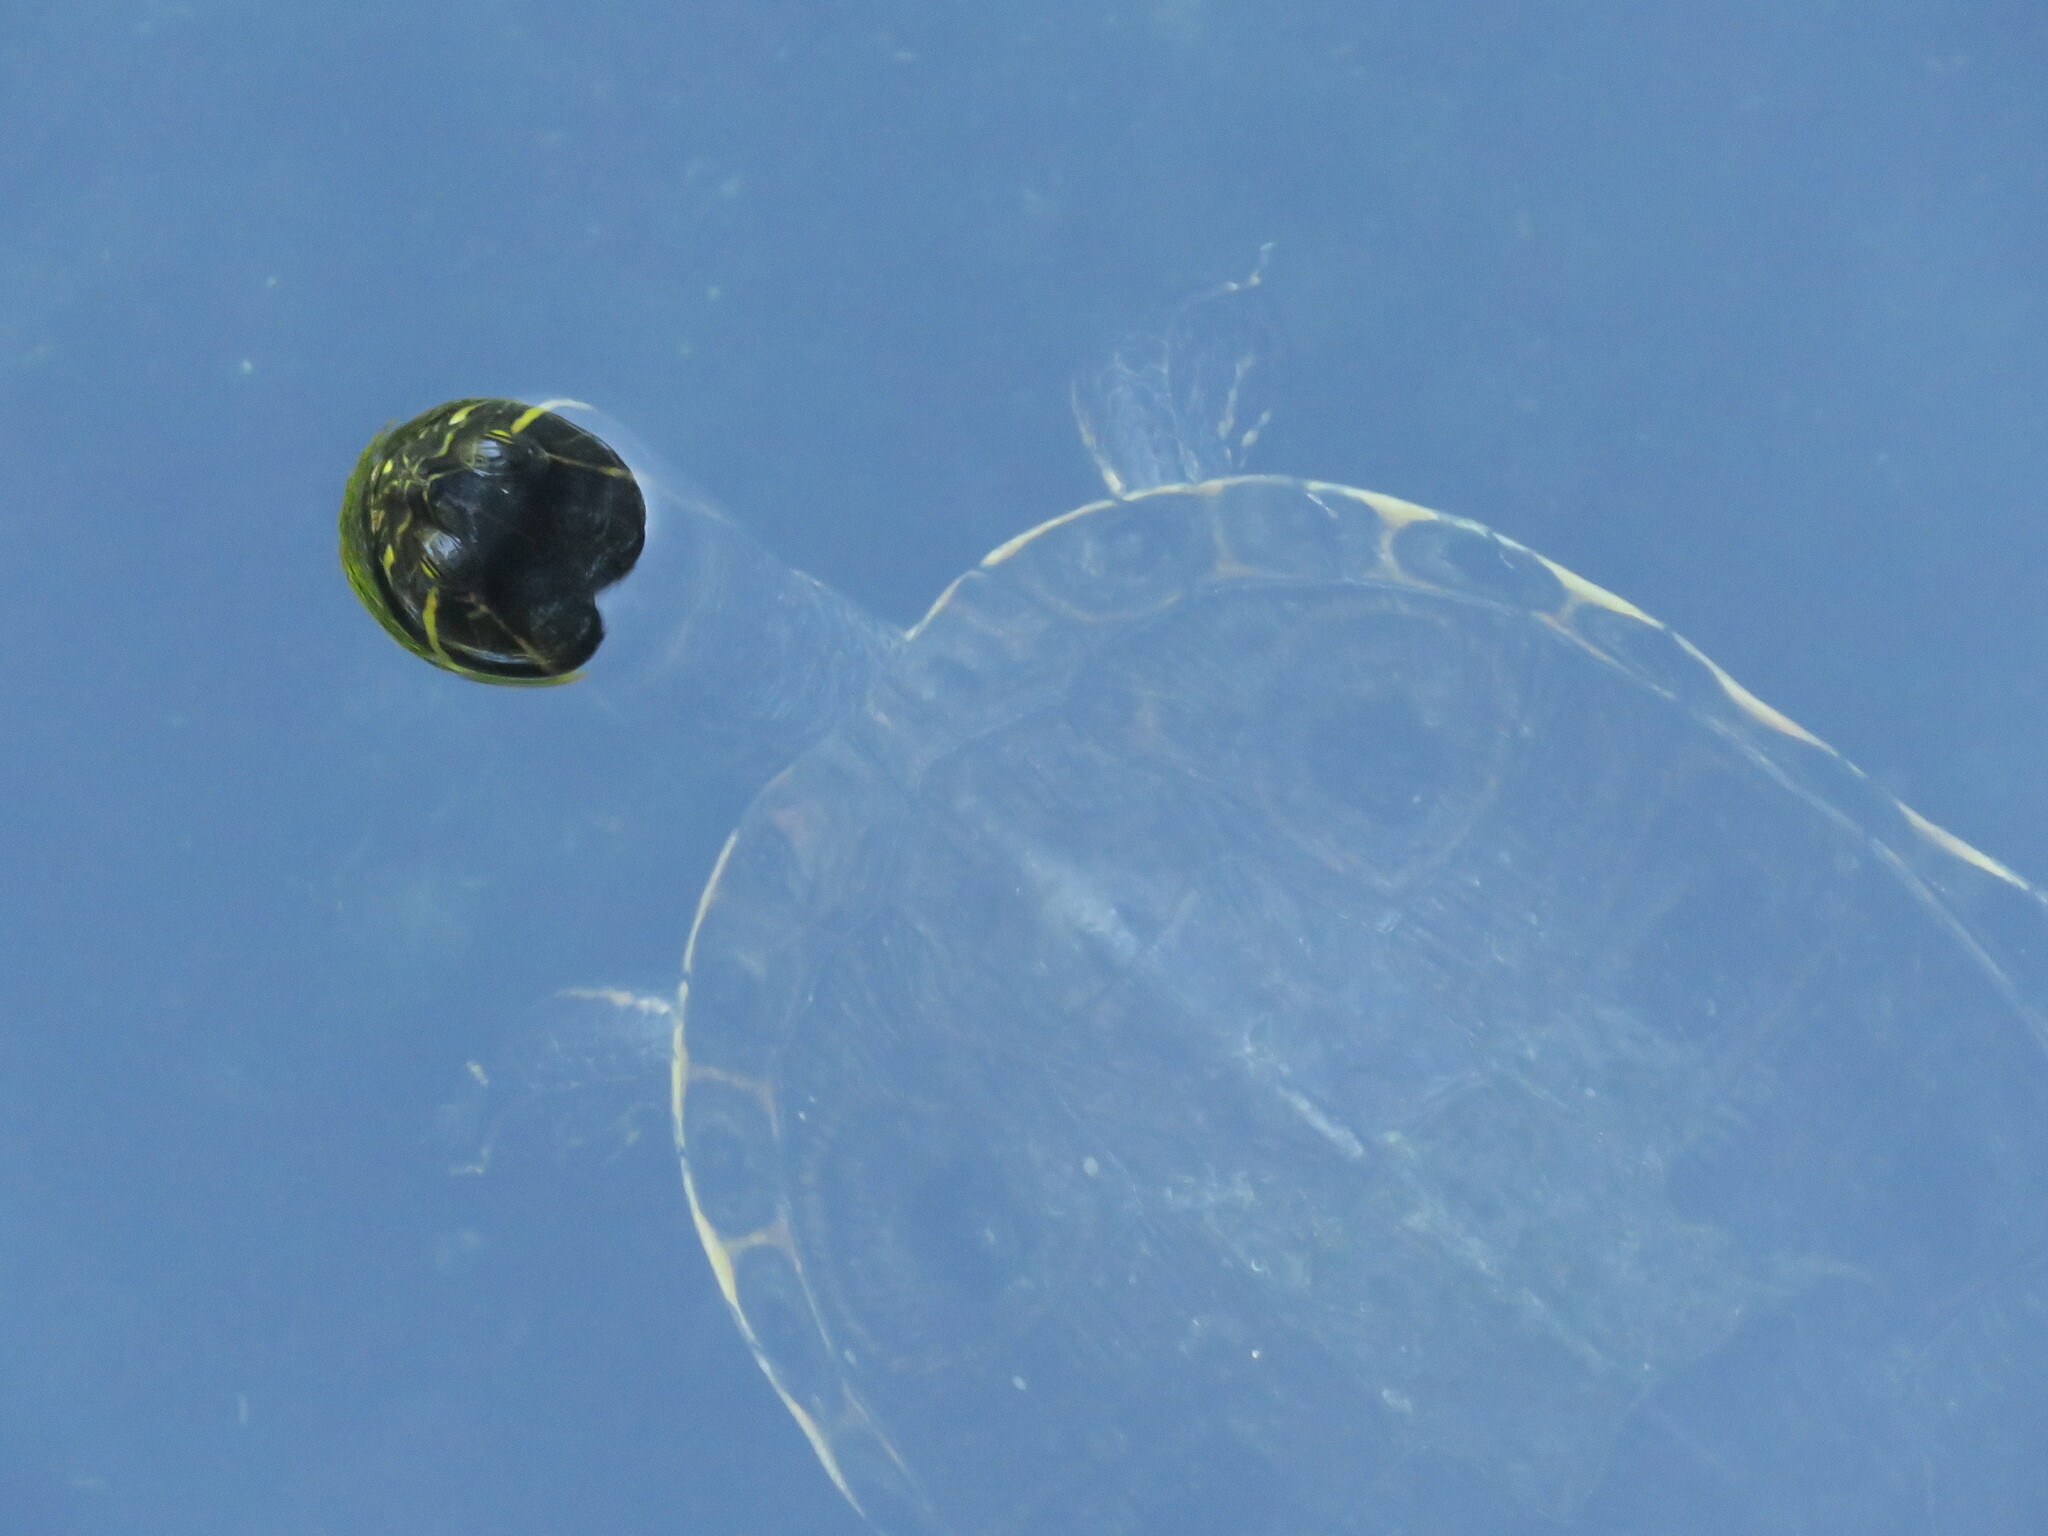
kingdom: Animalia
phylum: Chordata
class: Testudines
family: Emydidae
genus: Trachemys
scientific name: Trachemys venusta
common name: Mesoamerican slider
